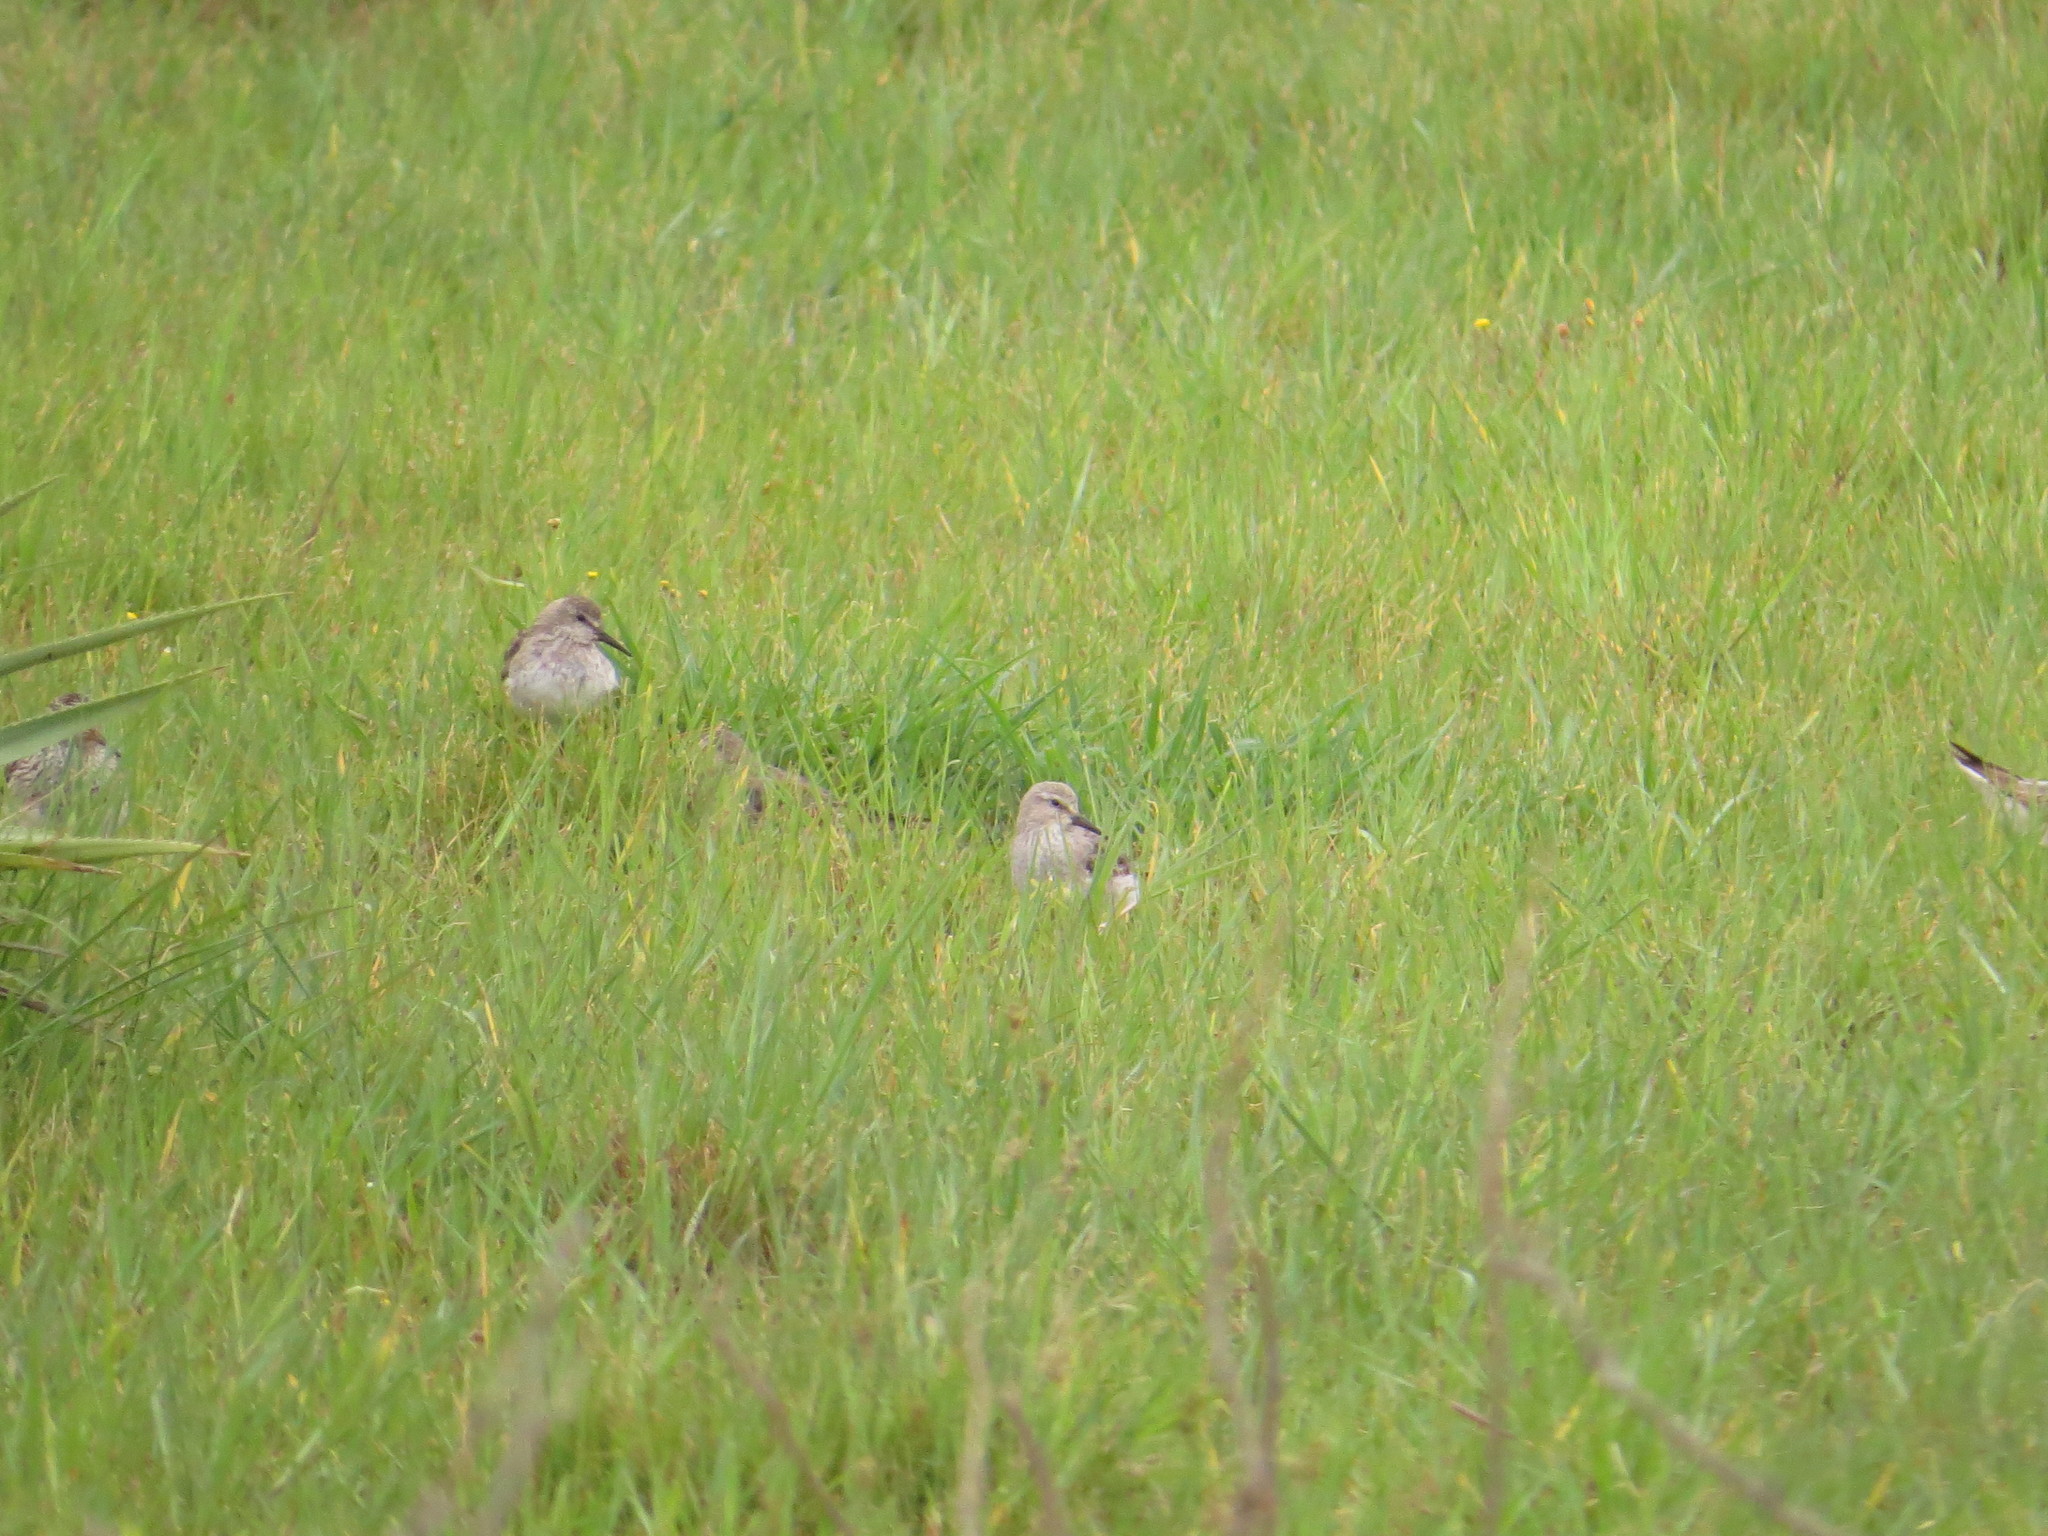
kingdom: Animalia
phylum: Chordata
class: Aves
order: Charadriiformes
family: Scolopacidae
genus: Calidris
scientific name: Calidris fuscicollis
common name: White-rumped sandpiper
